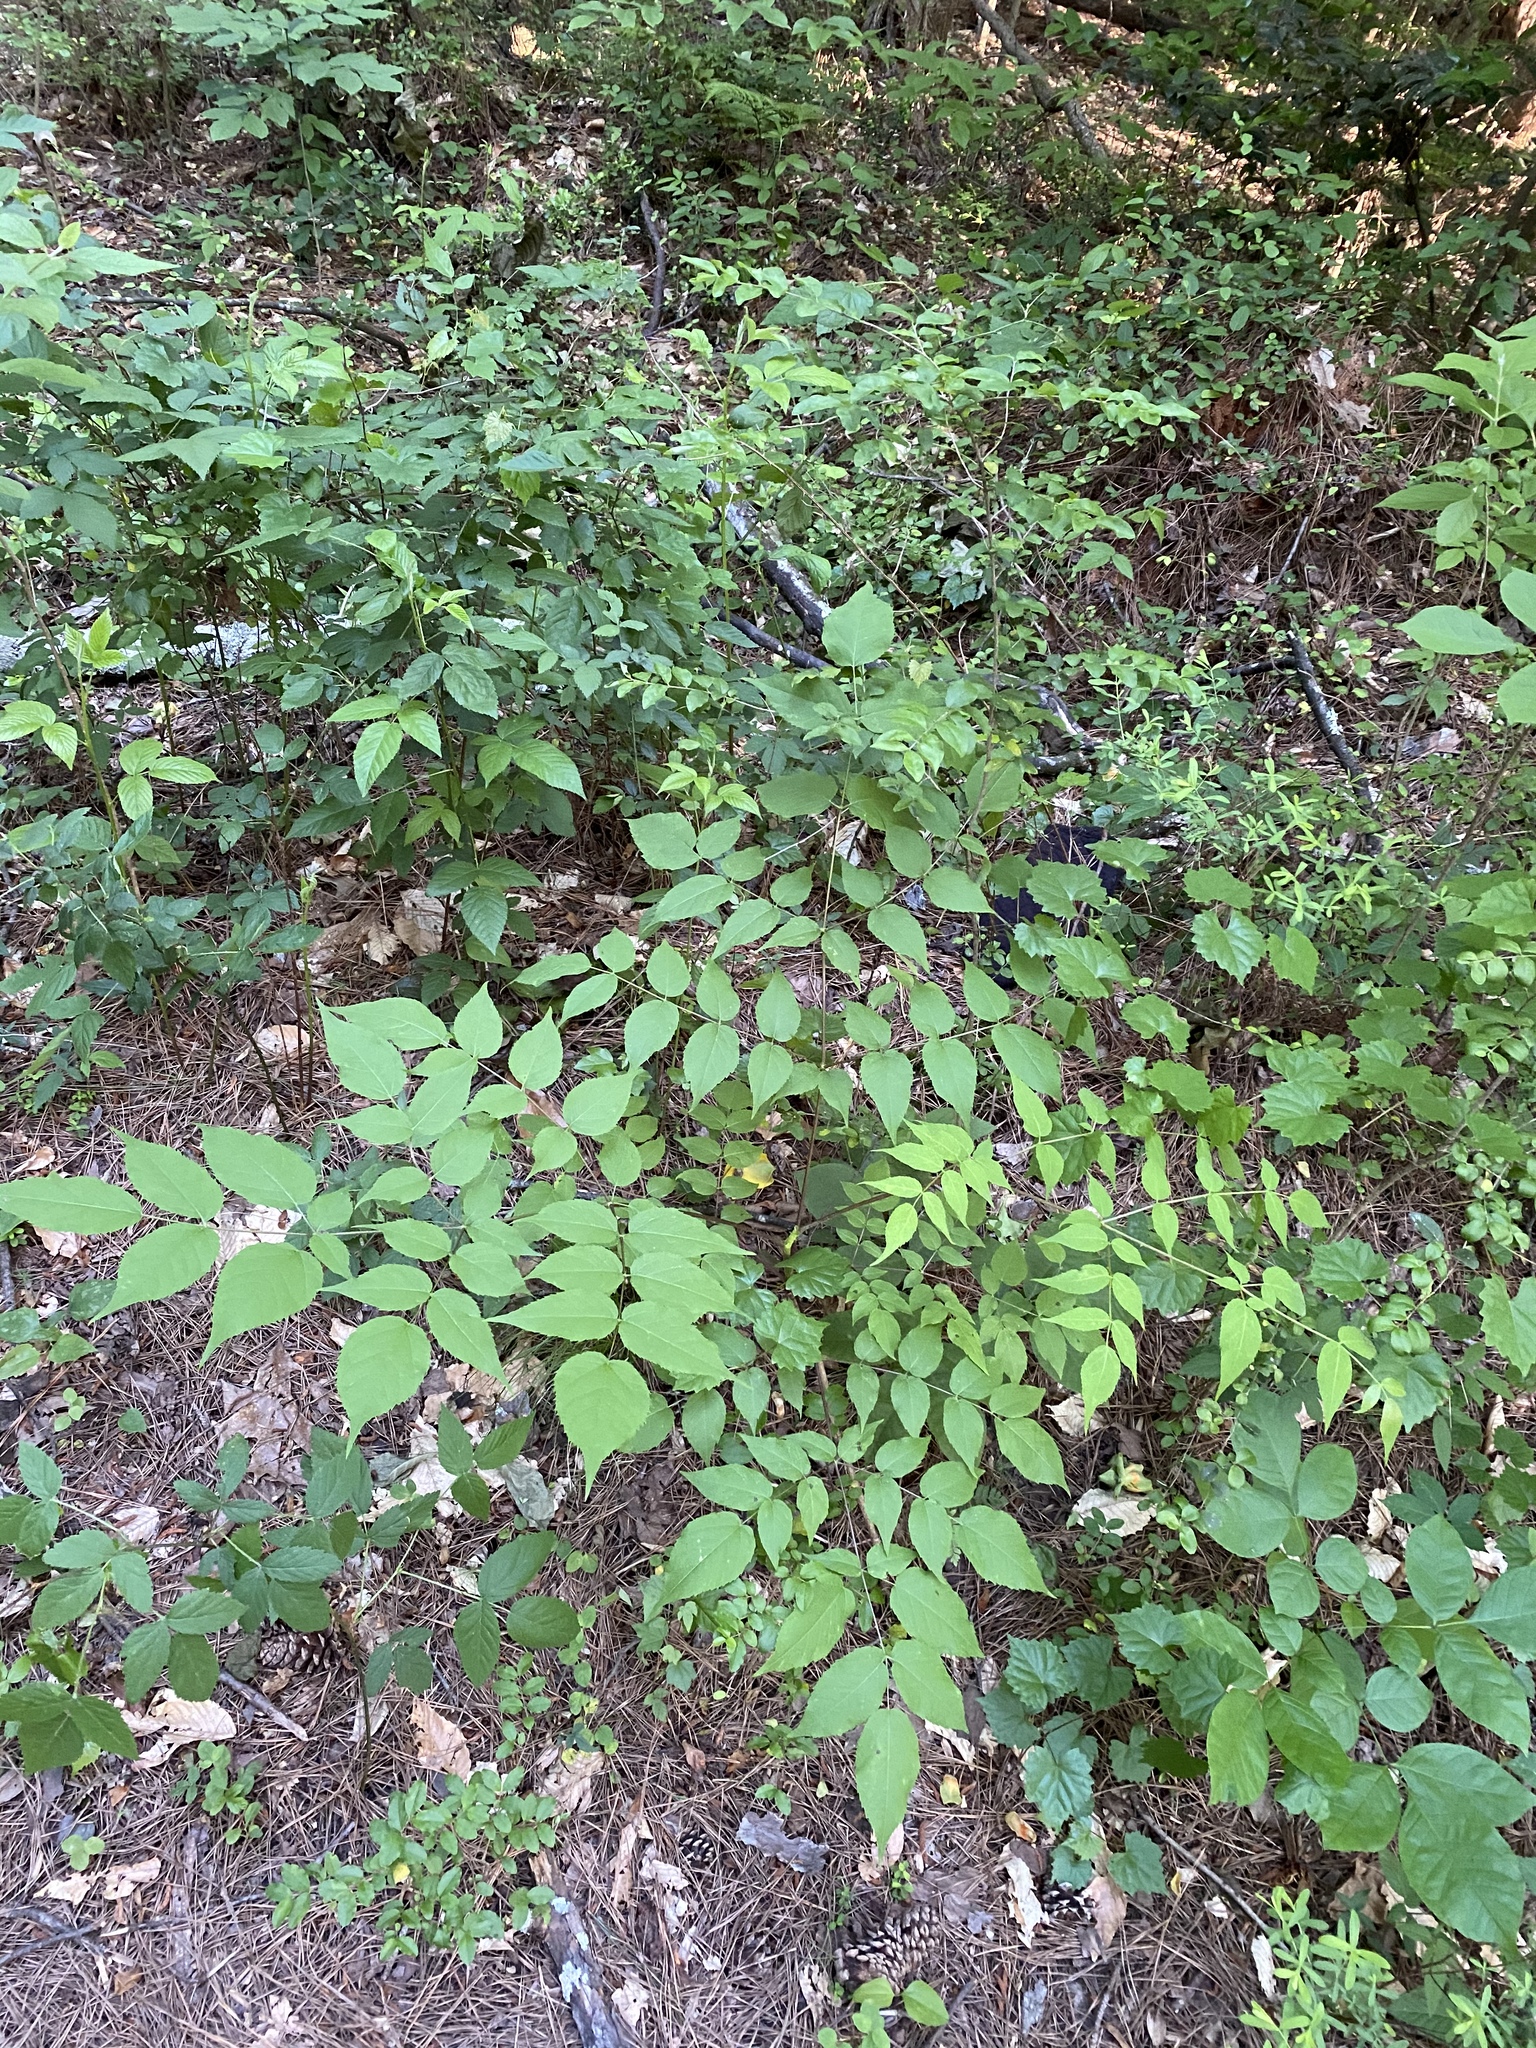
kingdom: Plantae
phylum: Tracheophyta
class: Magnoliopsida
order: Apiales
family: Araliaceae
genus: Aralia
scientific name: Aralia spinosa
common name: Hercules'-club
